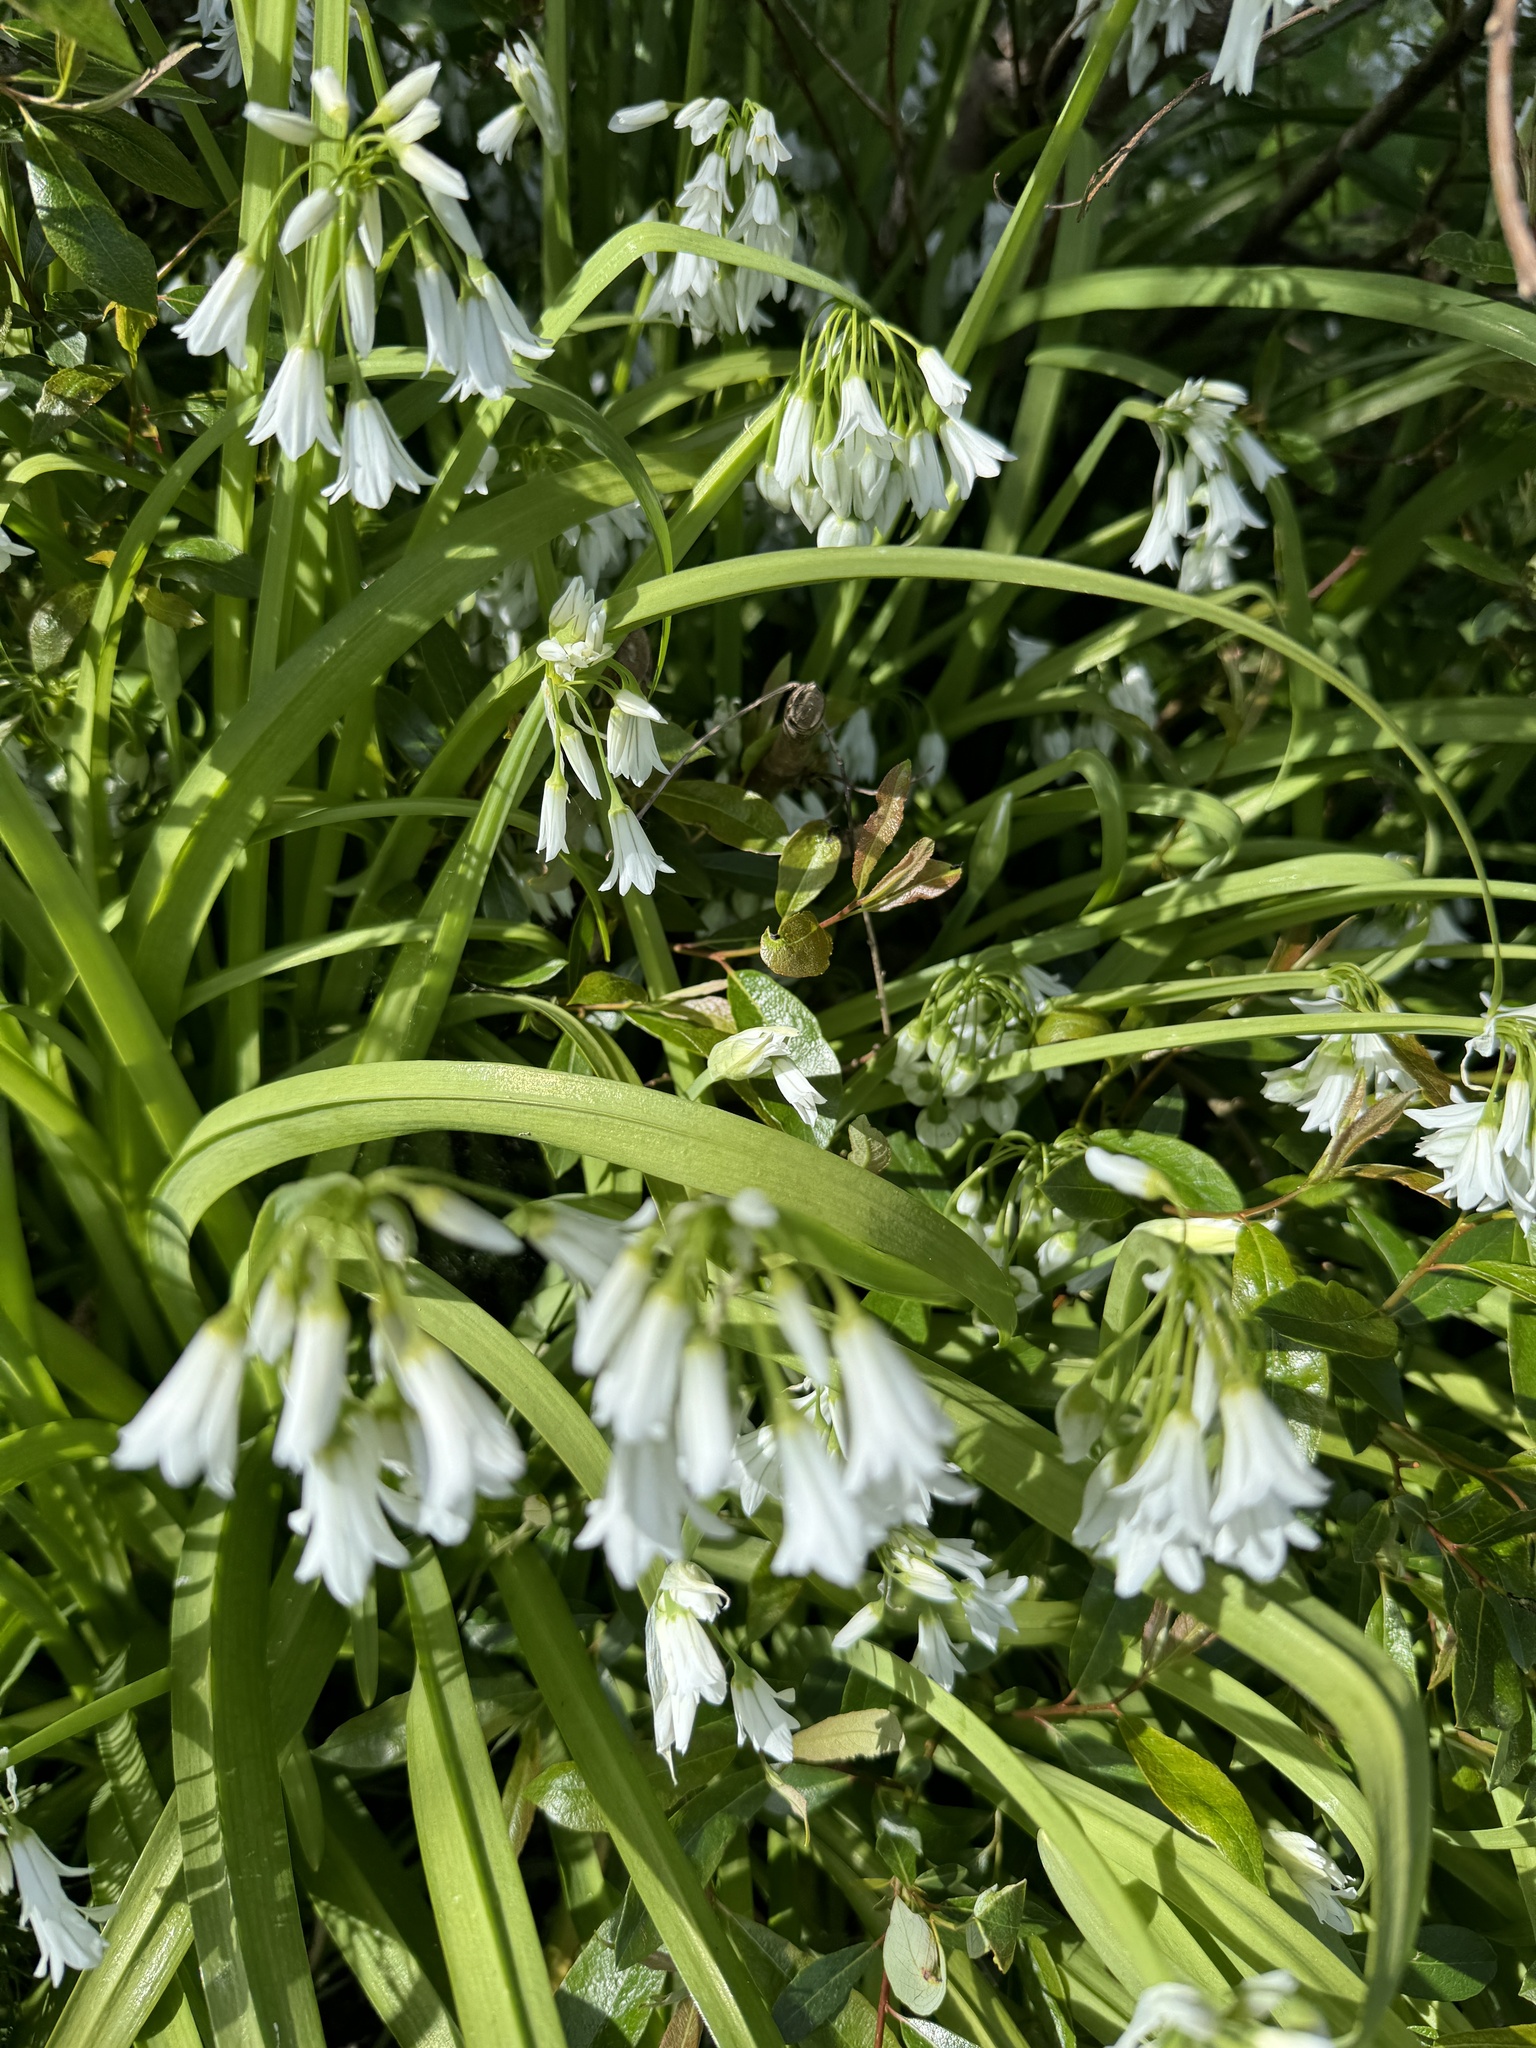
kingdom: Plantae
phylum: Tracheophyta
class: Liliopsida
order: Asparagales
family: Amaryllidaceae
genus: Allium
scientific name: Allium triquetrum
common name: Three-cornered garlic
